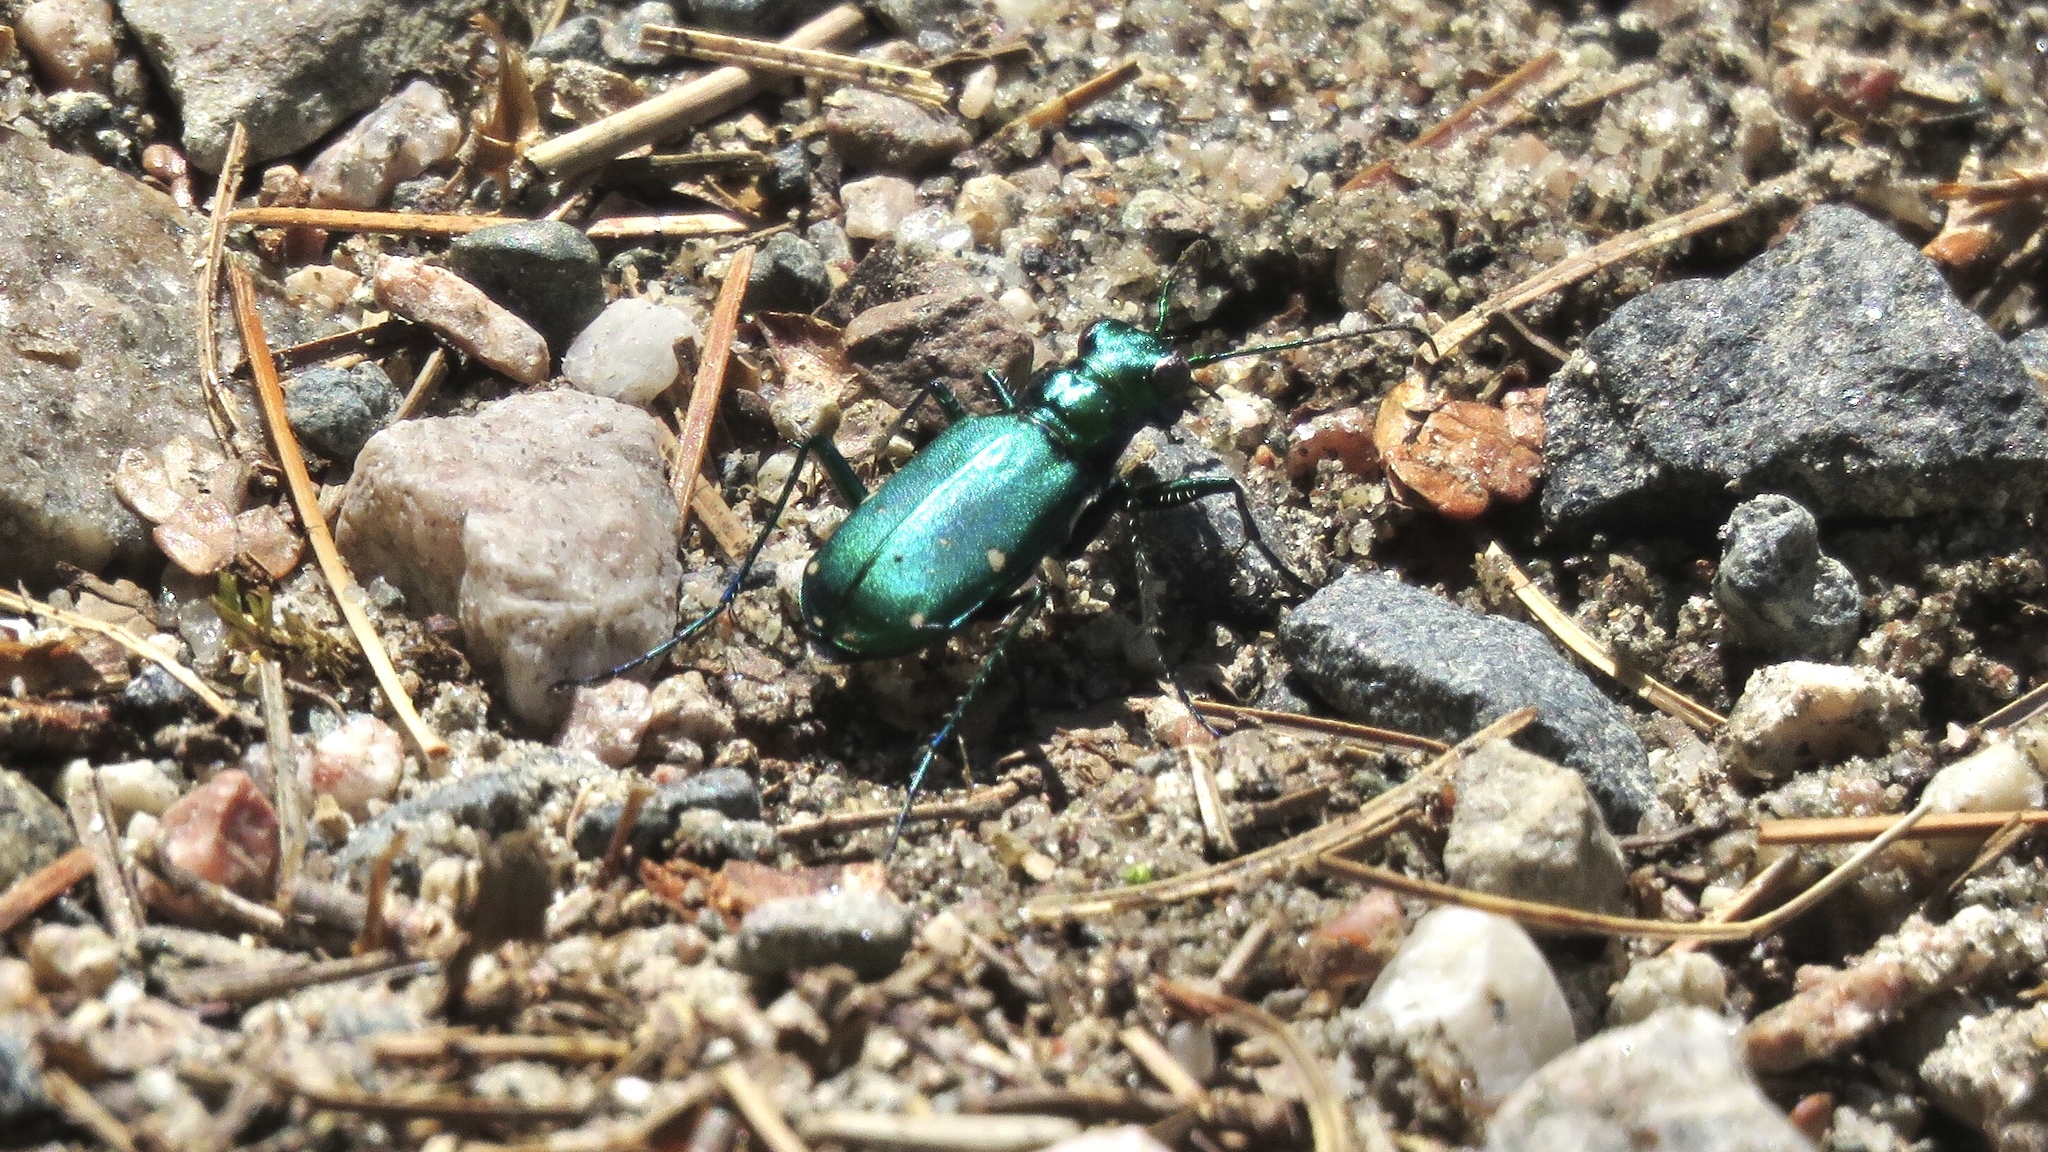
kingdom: Animalia
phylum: Arthropoda
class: Insecta
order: Coleoptera
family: Carabidae
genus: Cicindela
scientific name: Cicindela sexguttata
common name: Six-spotted tiger beetle
